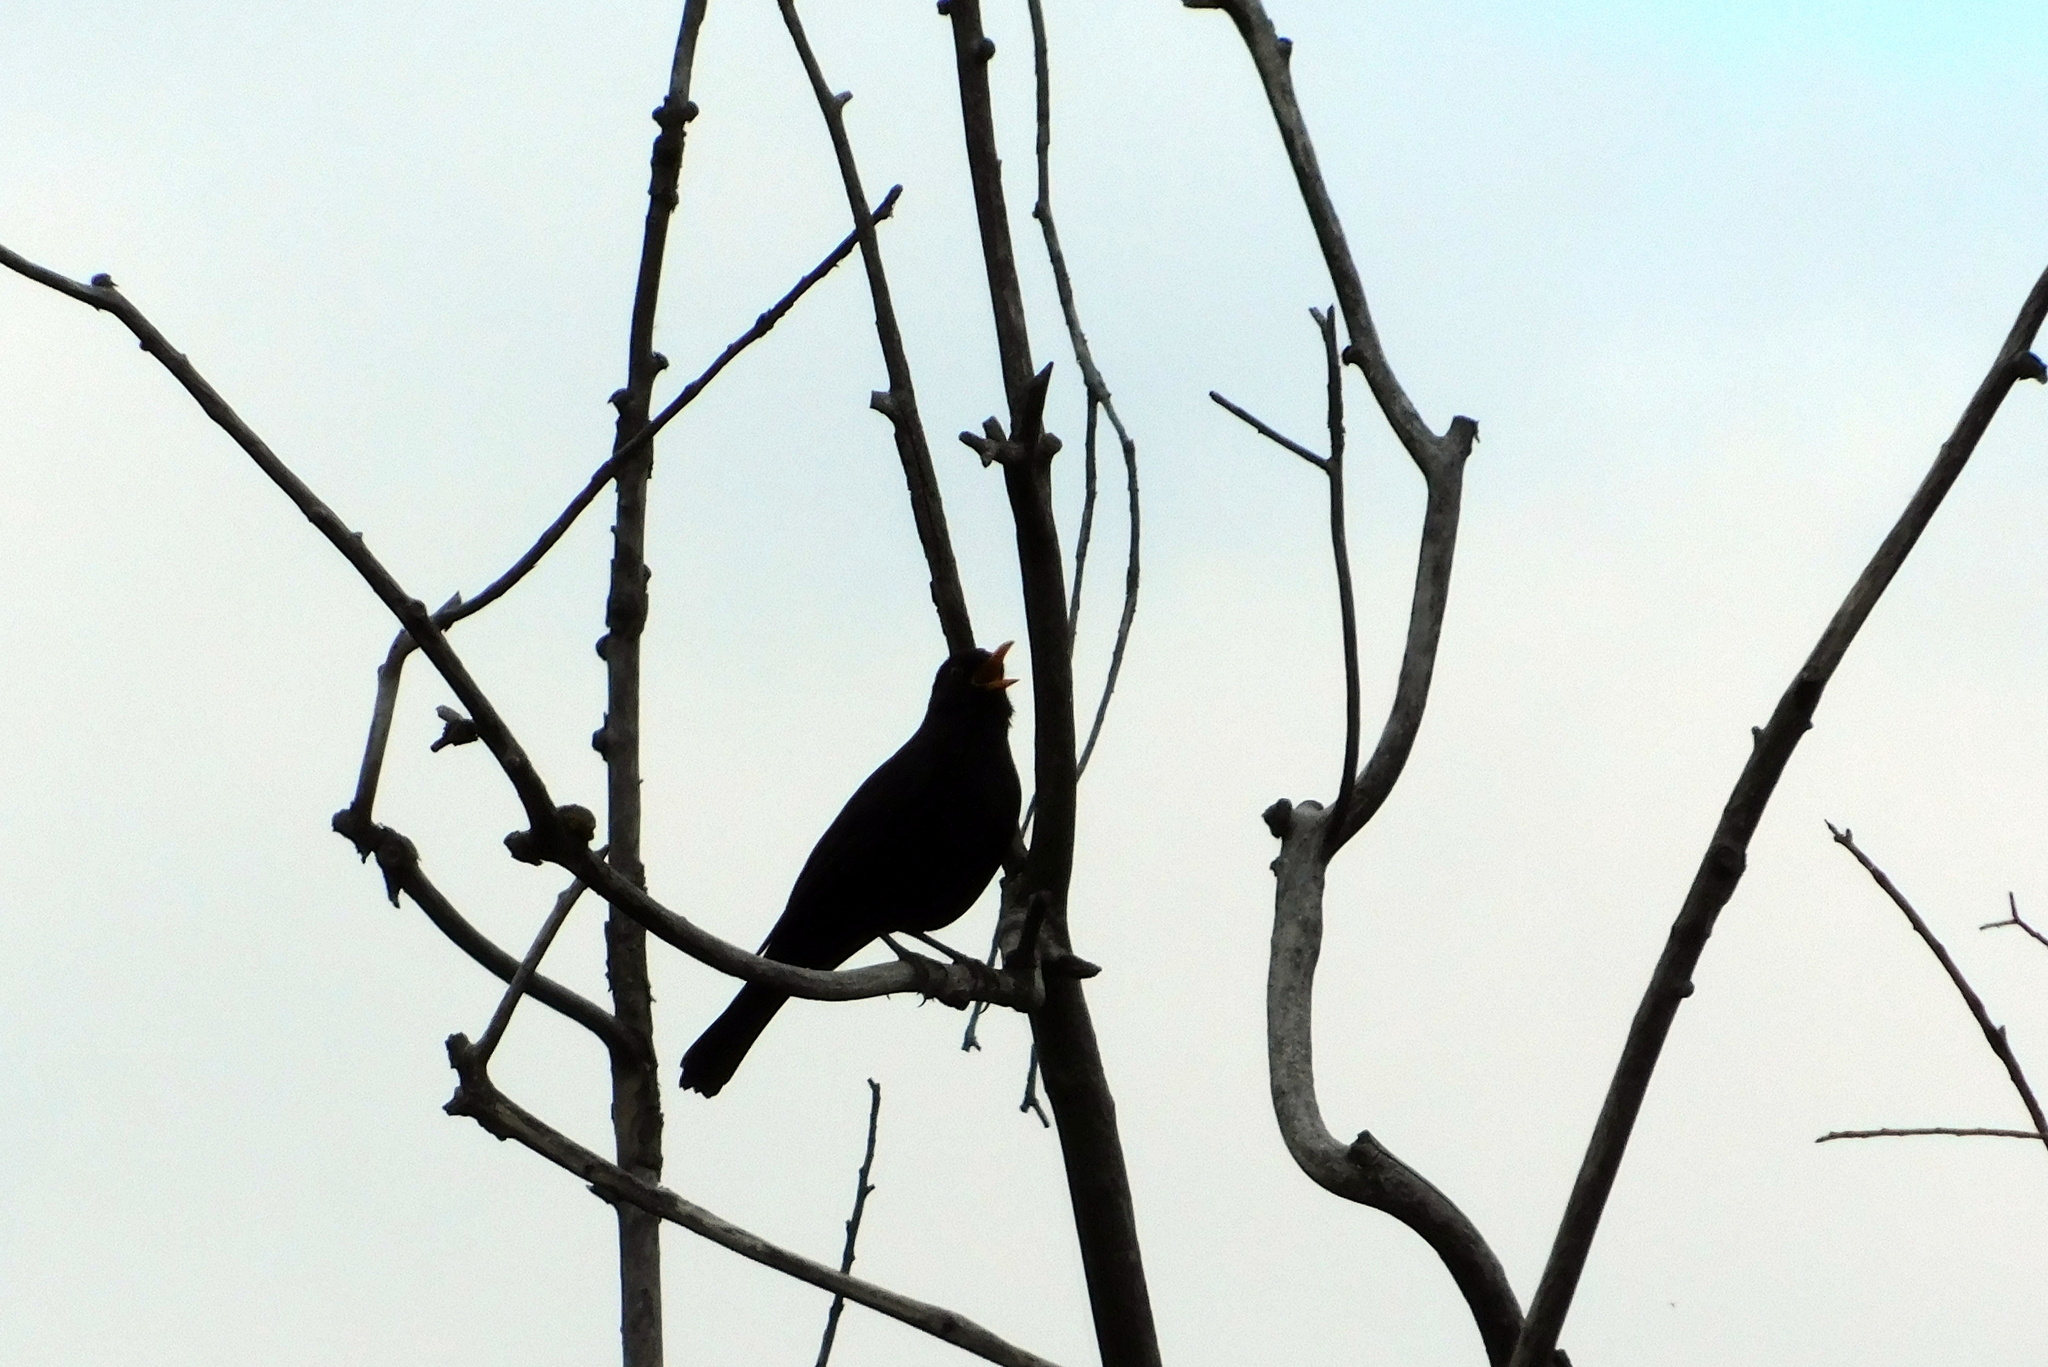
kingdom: Animalia
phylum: Chordata
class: Aves
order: Passeriformes
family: Turdidae
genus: Turdus
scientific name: Turdus merula
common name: Common blackbird
